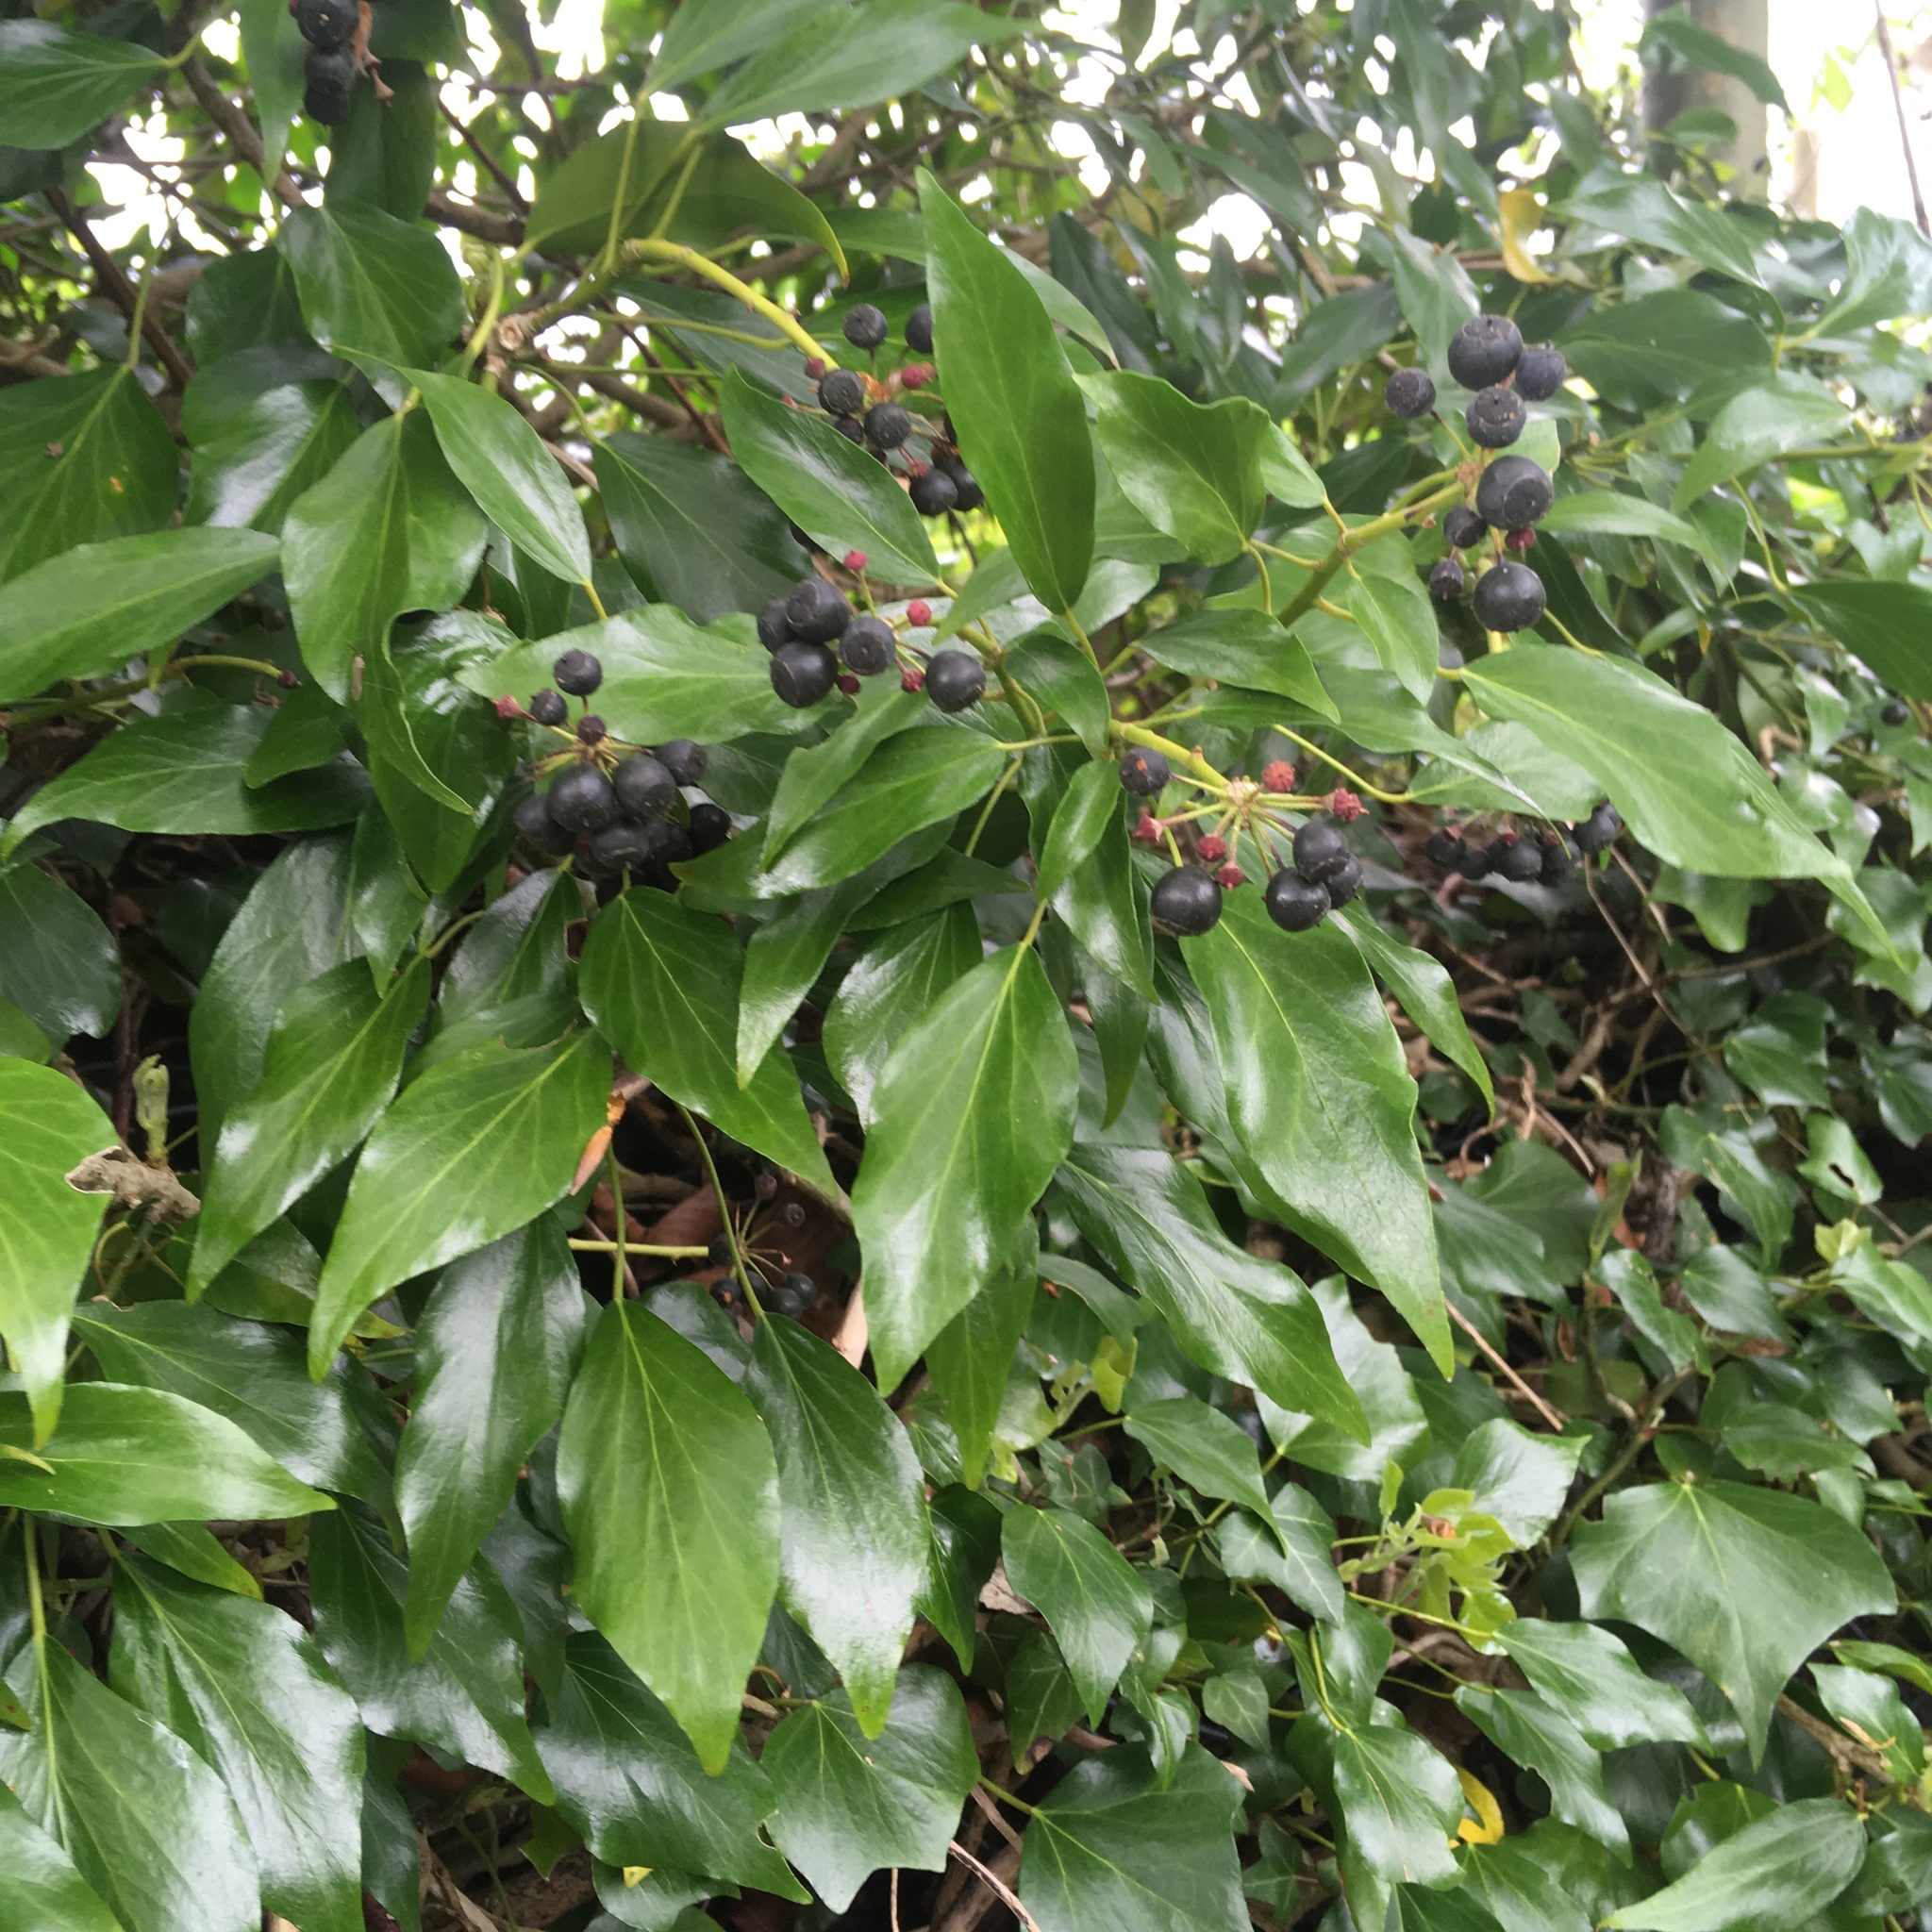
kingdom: Plantae
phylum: Tracheophyta
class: Magnoliopsida
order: Apiales
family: Araliaceae
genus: Hedera
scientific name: Hedera helix
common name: Ivy
